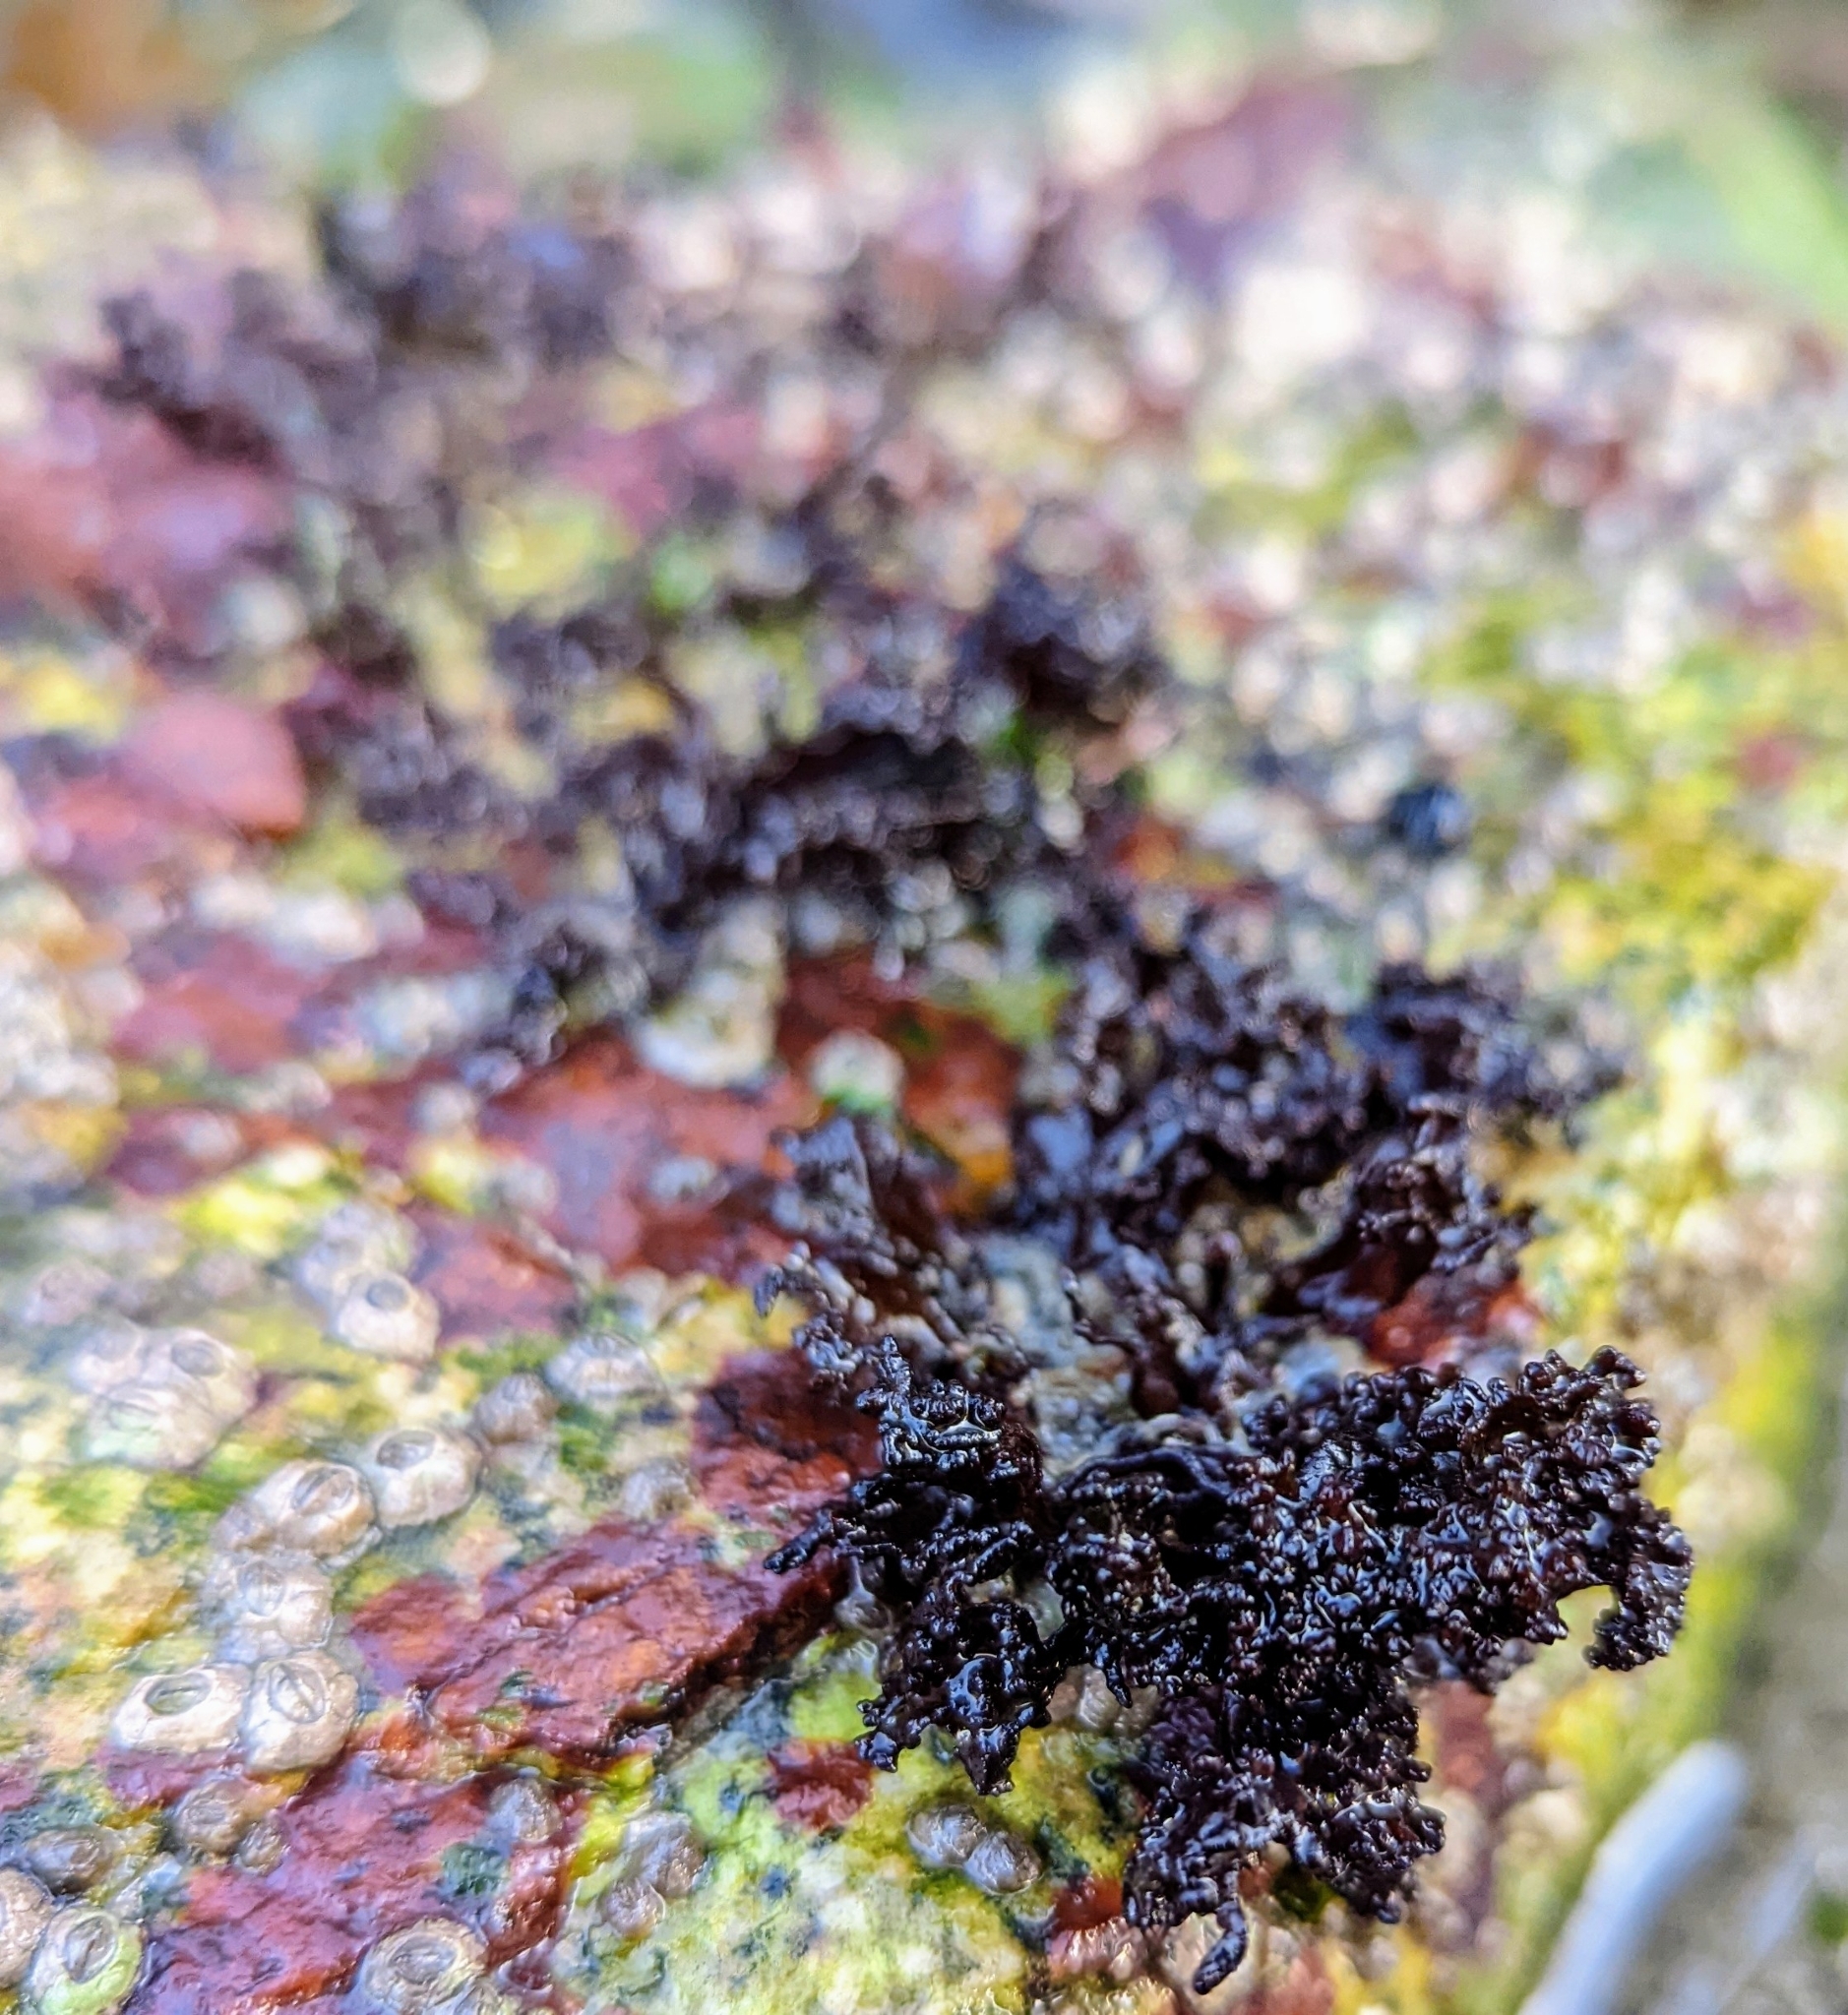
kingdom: Plantae
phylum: Rhodophyta
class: Florideophyceae
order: Gigartinales
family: Phyllophoraceae
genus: Mastocarpus
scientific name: Mastocarpus papillatus
